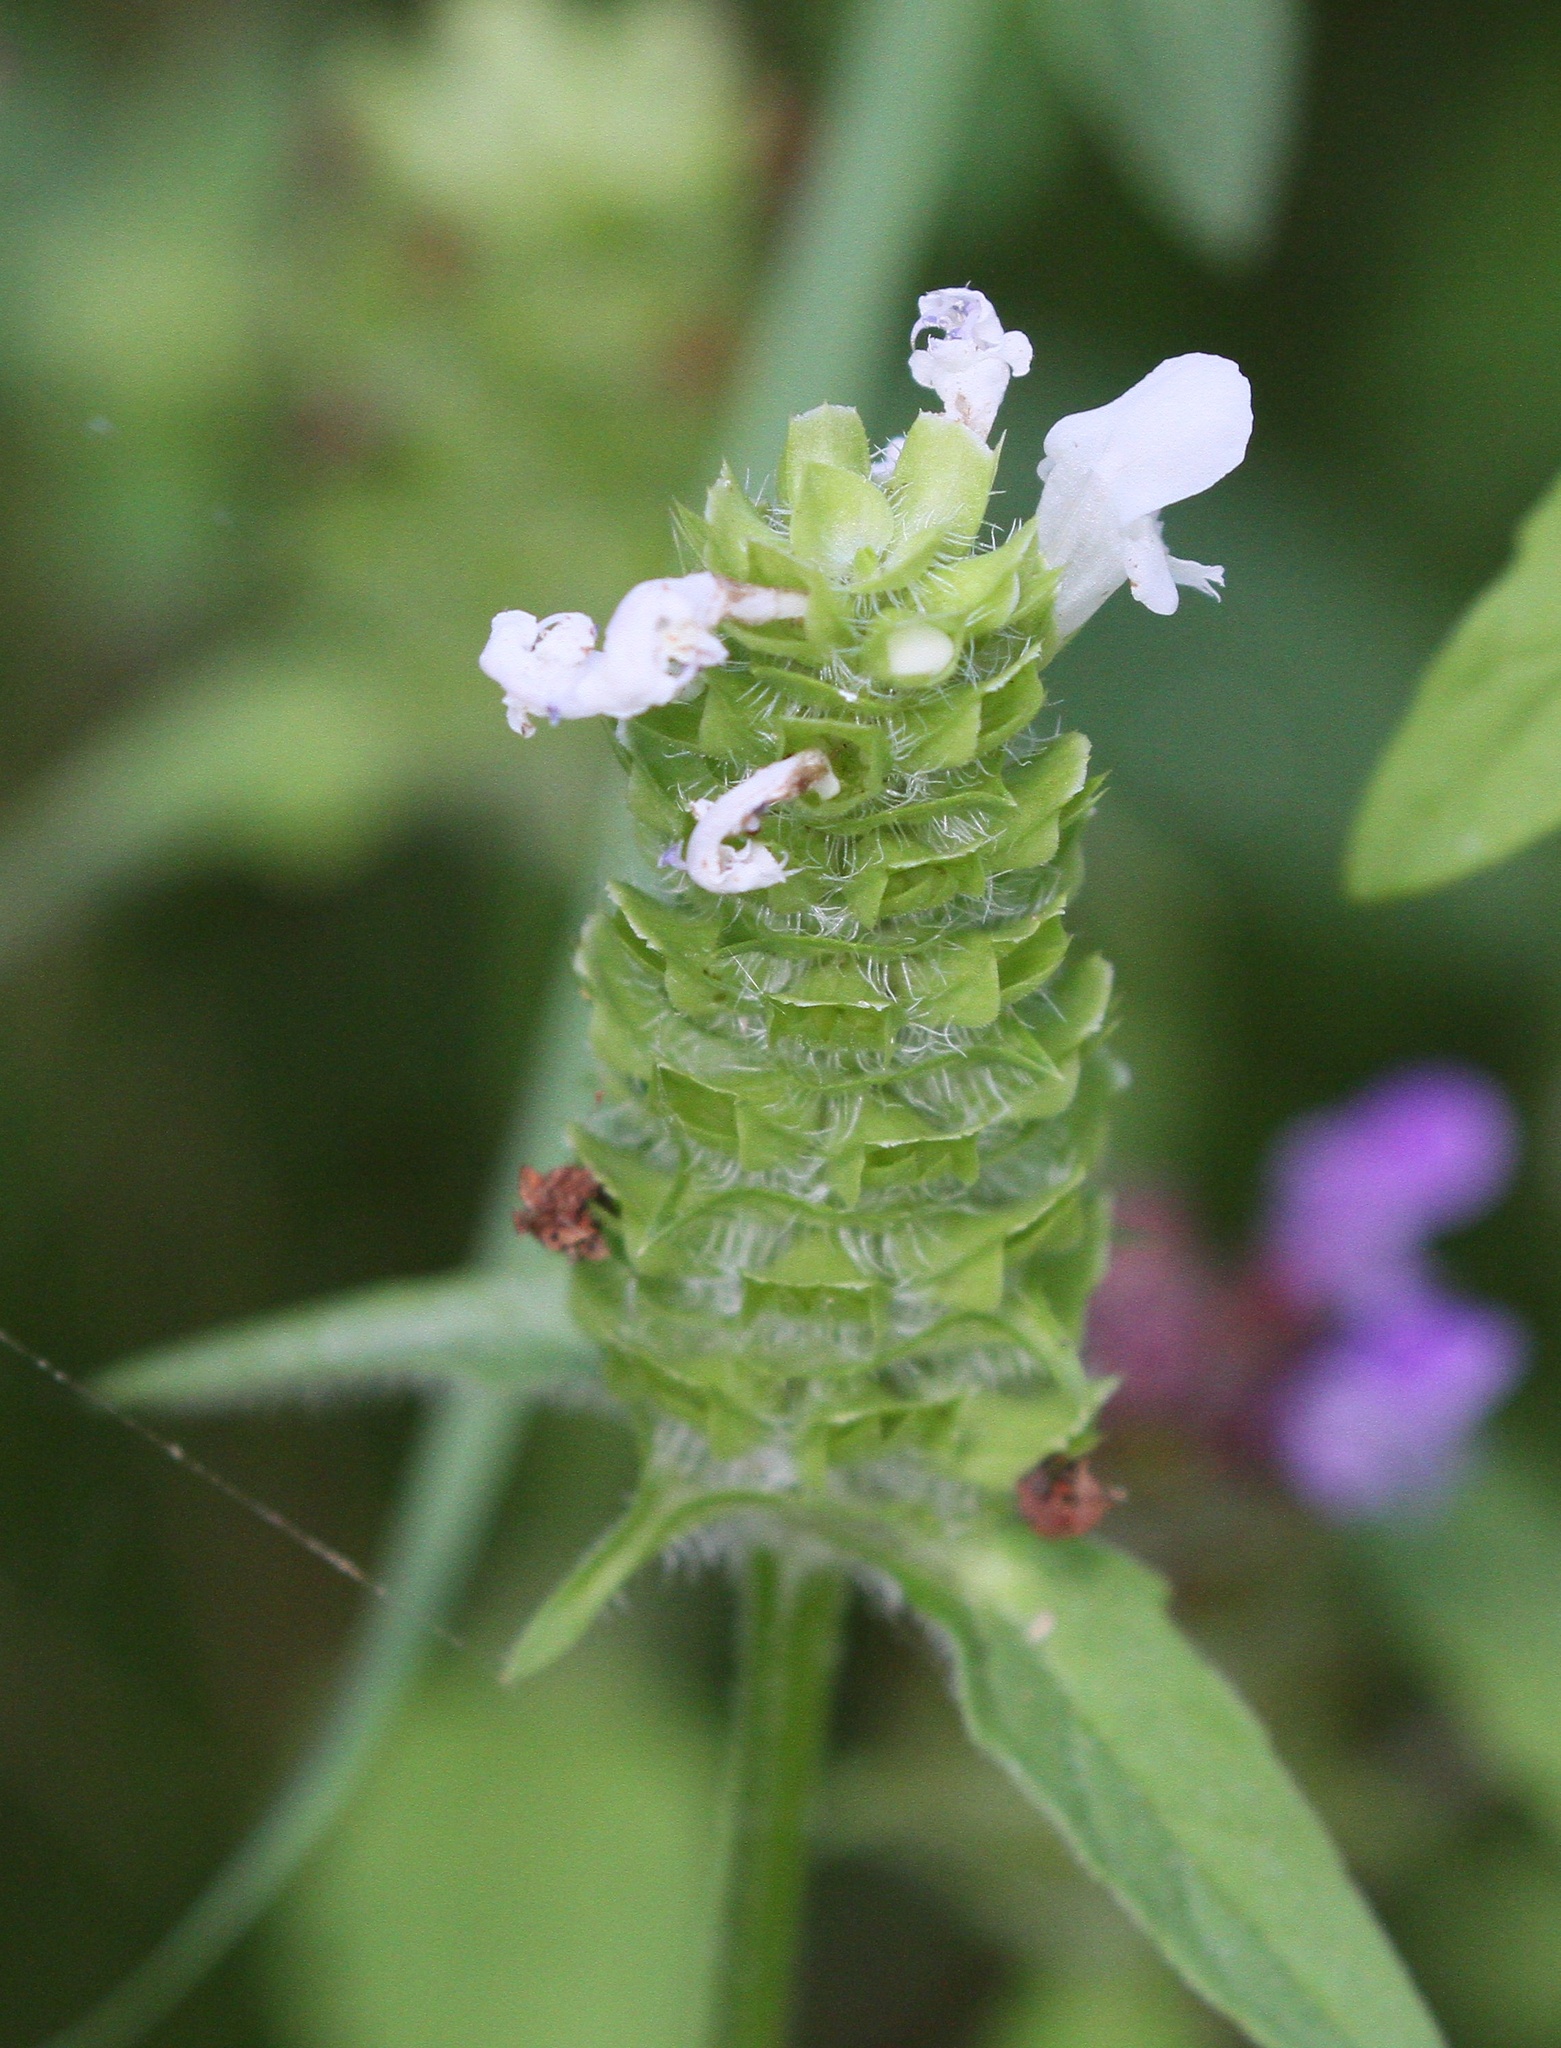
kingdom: Plantae
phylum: Tracheophyta
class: Magnoliopsida
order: Lamiales
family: Lamiaceae
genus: Prunella
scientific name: Prunella vulgaris
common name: Heal-all
